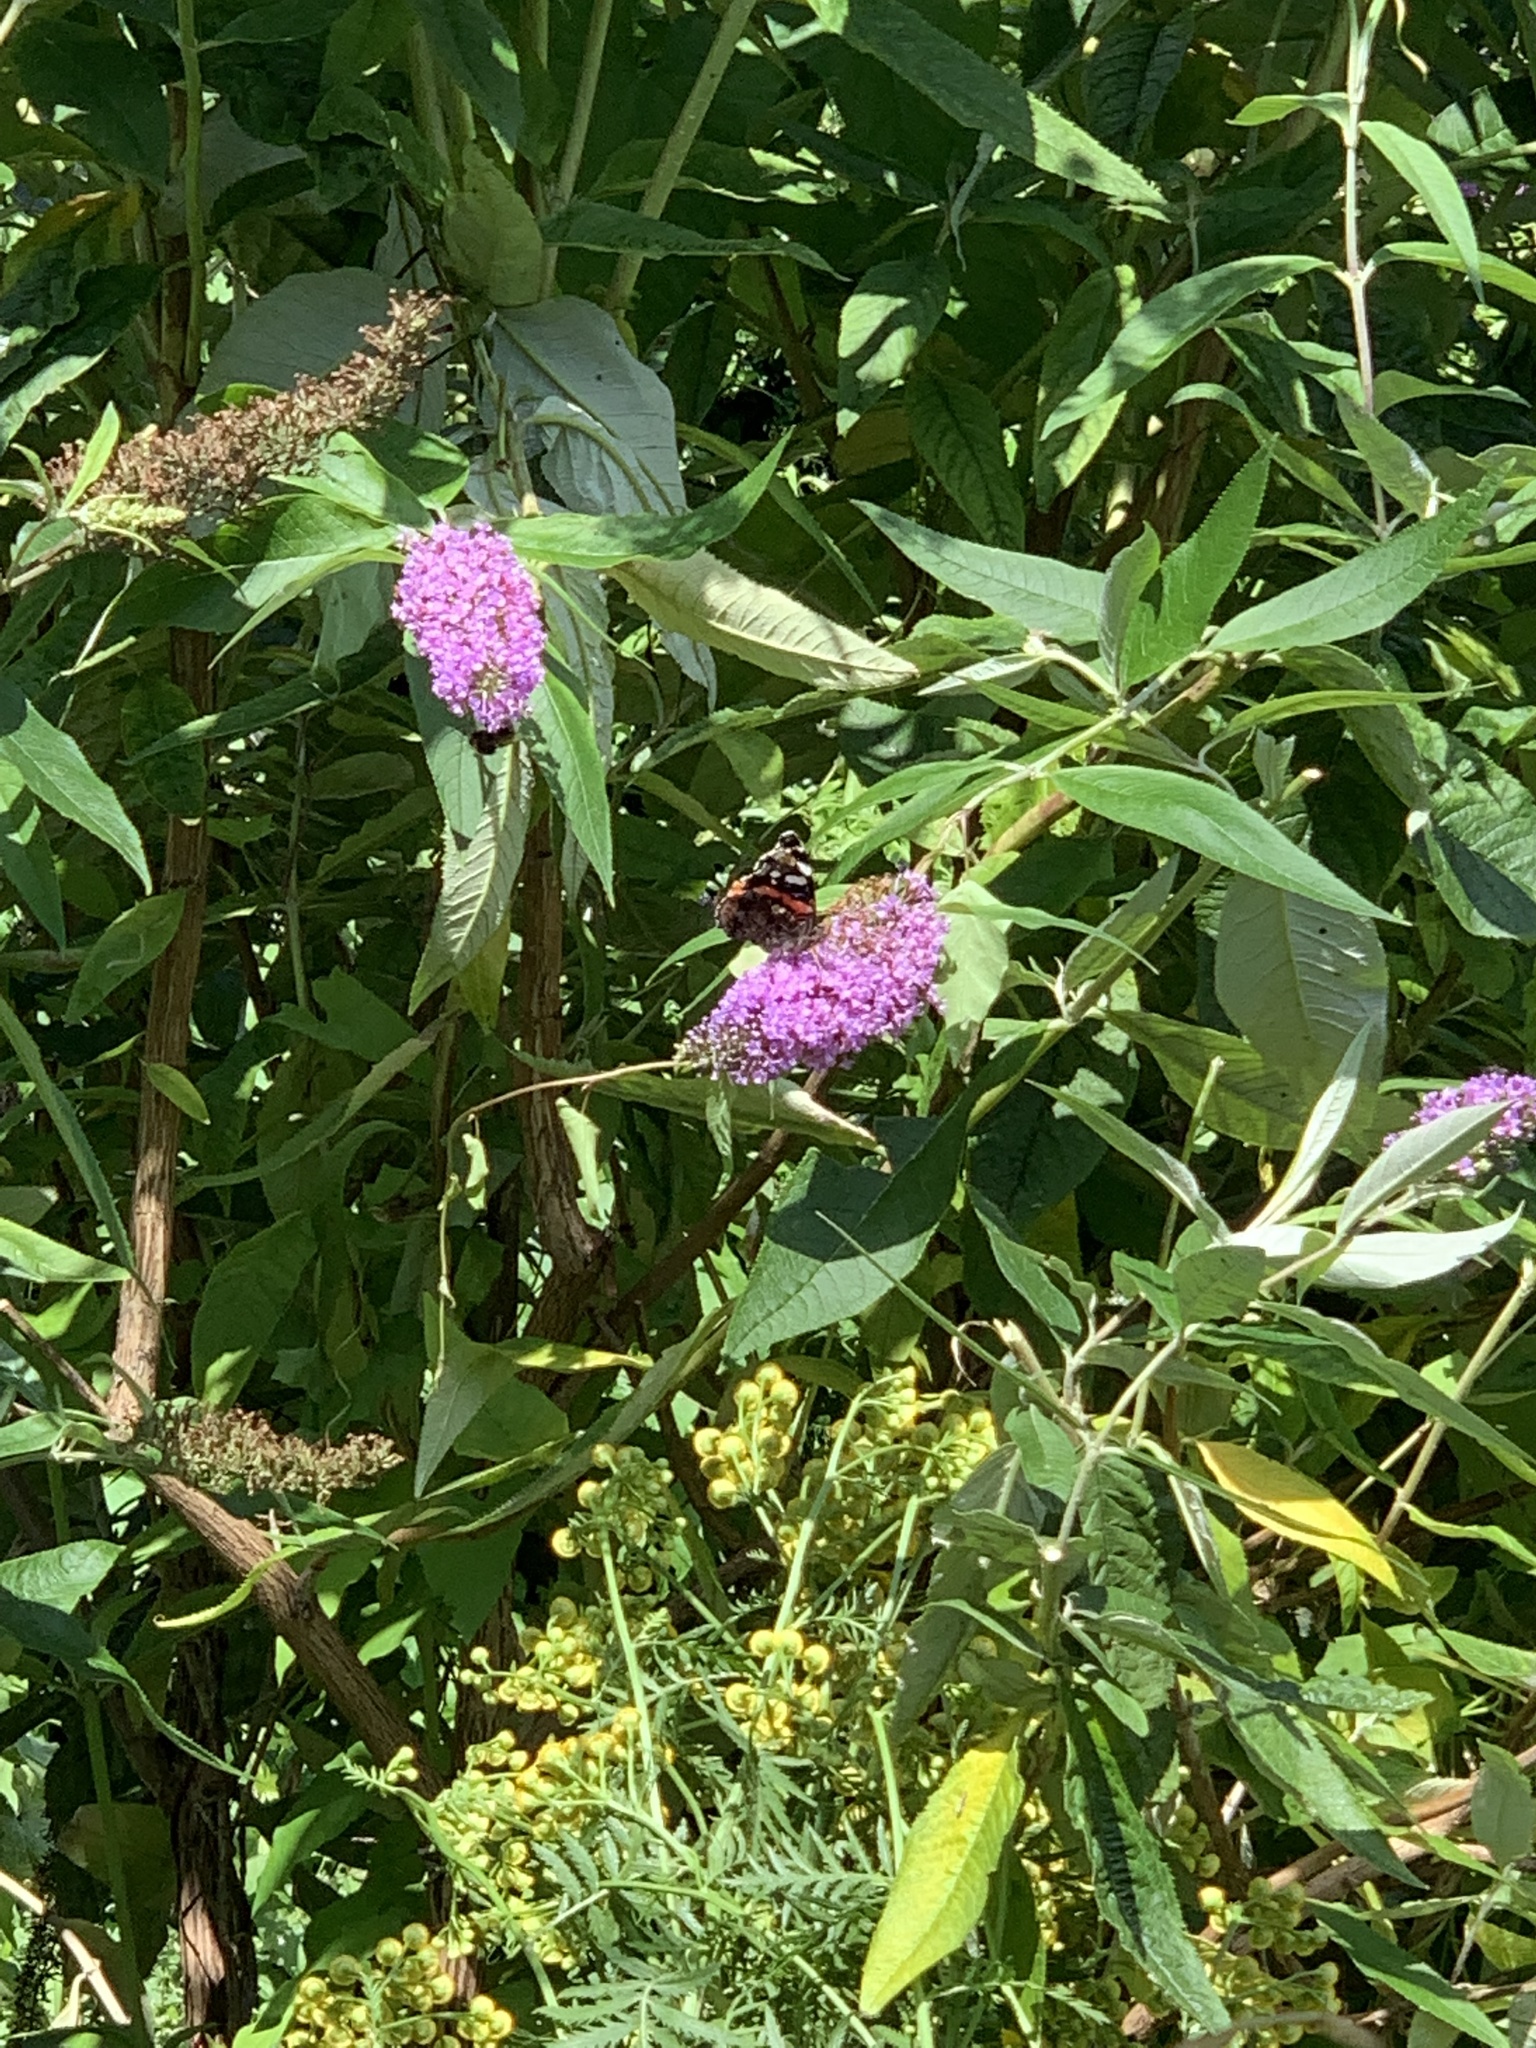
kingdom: Animalia
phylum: Arthropoda
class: Insecta
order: Lepidoptera
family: Nymphalidae
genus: Vanessa
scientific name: Vanessa atalanta
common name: Red admiral
